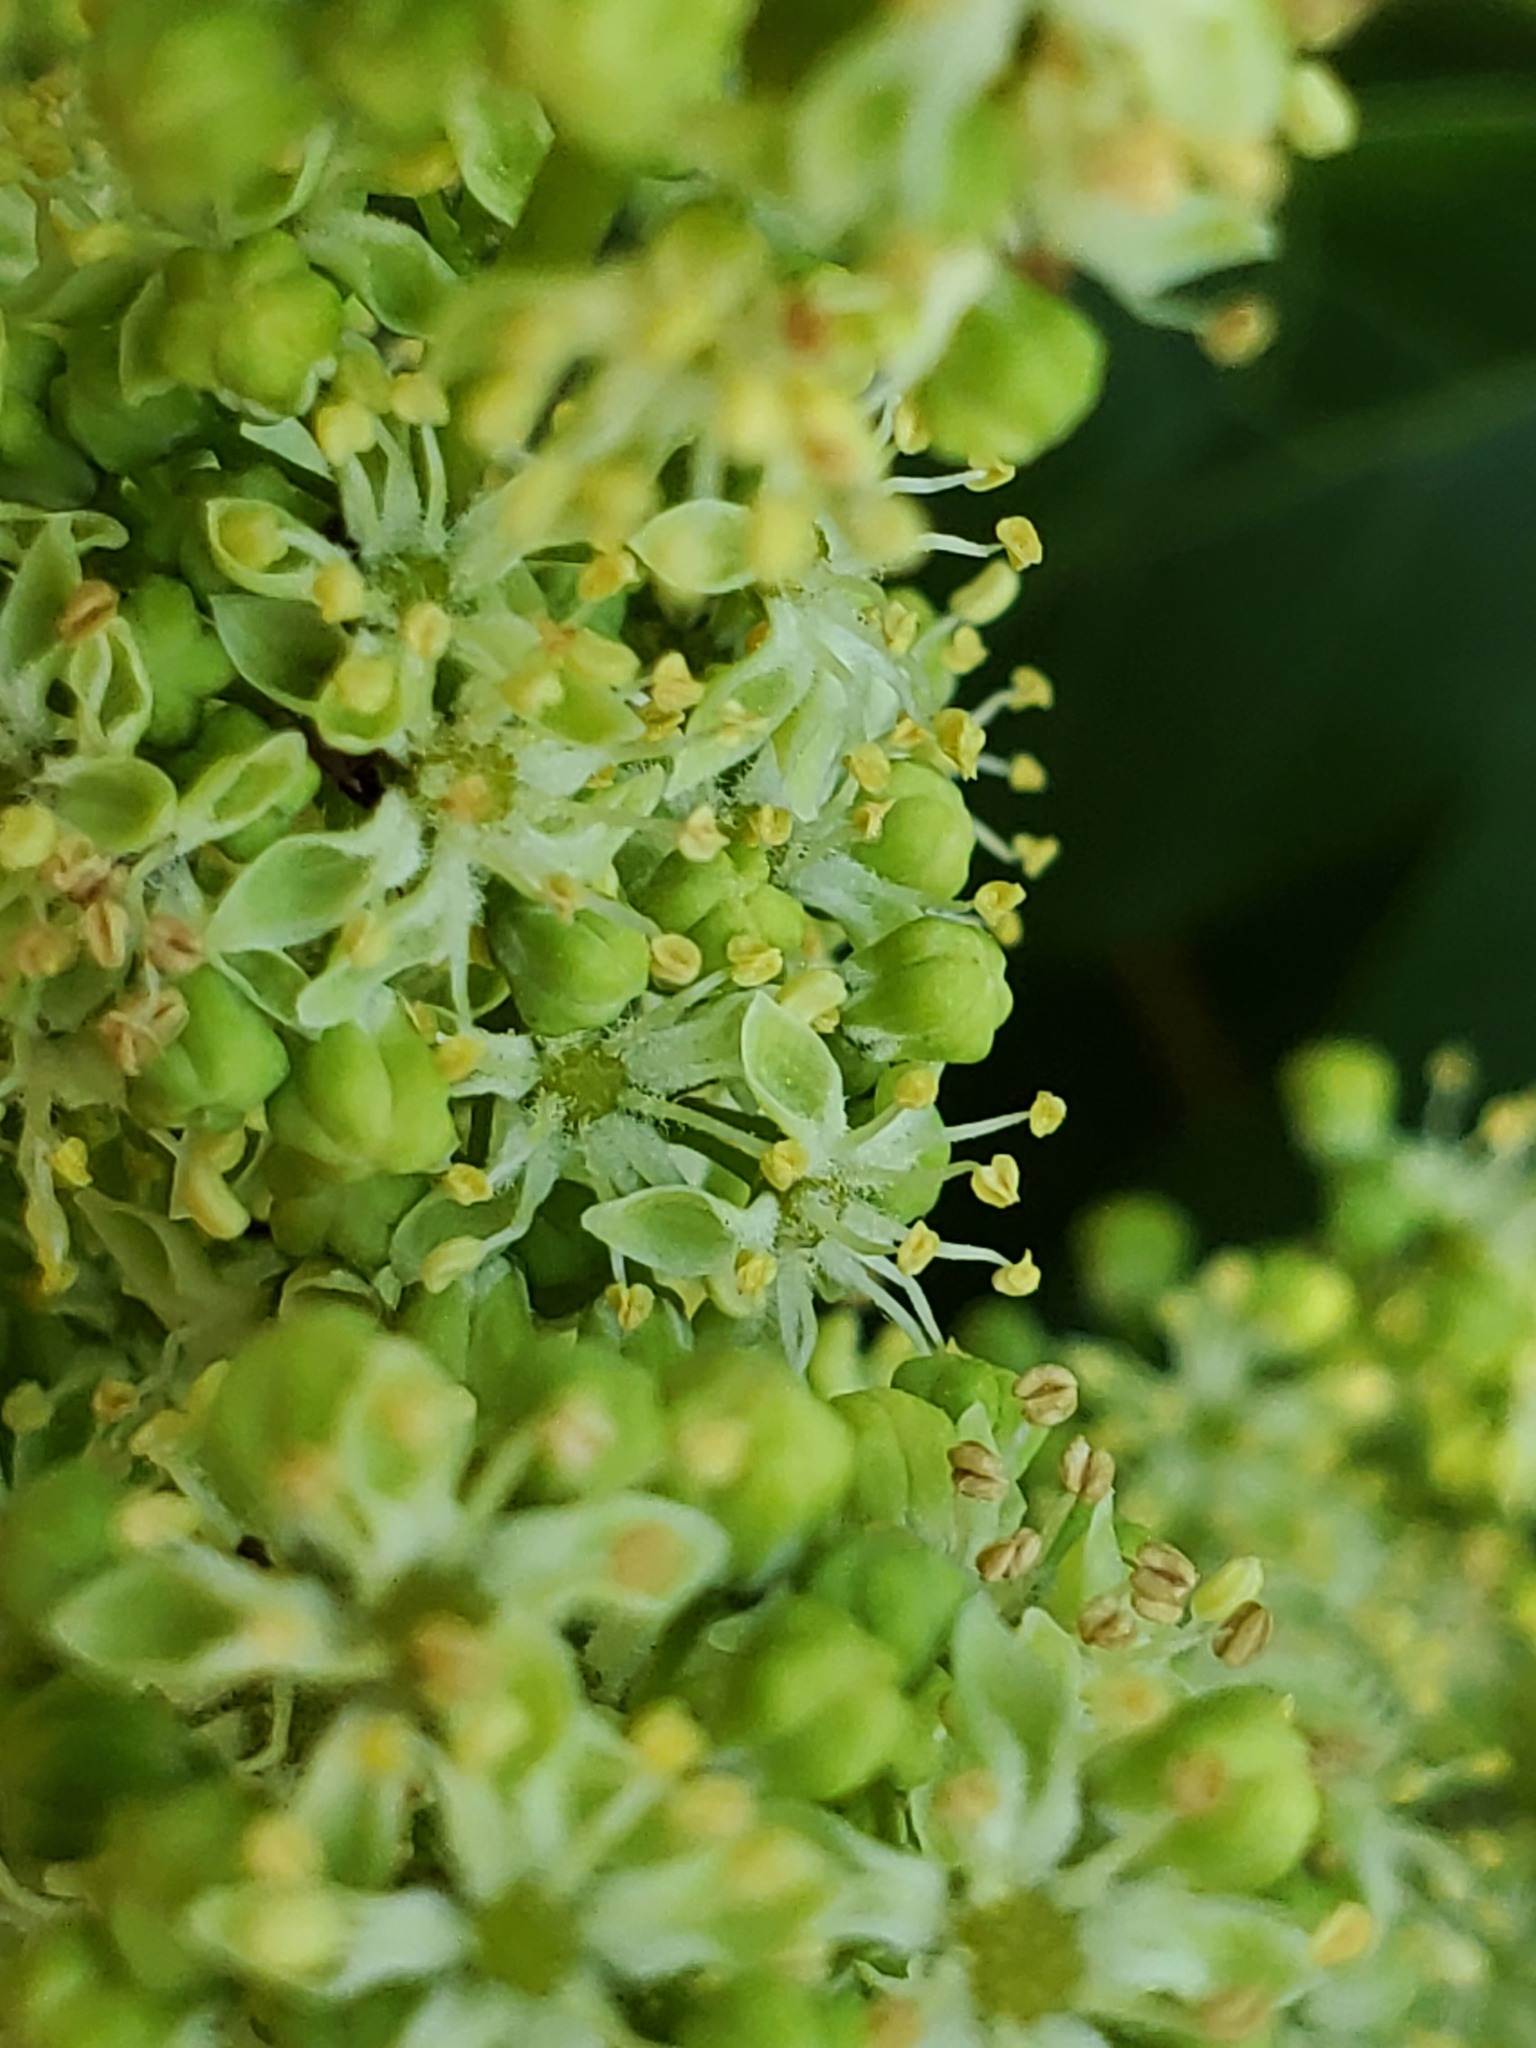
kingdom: Plantae
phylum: Tracheophyta
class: Magnoliopsida
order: Sapindales
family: Simaroubaceae
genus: Ailanthus
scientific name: Ailanthus altissima
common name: Tree-of-heaven
